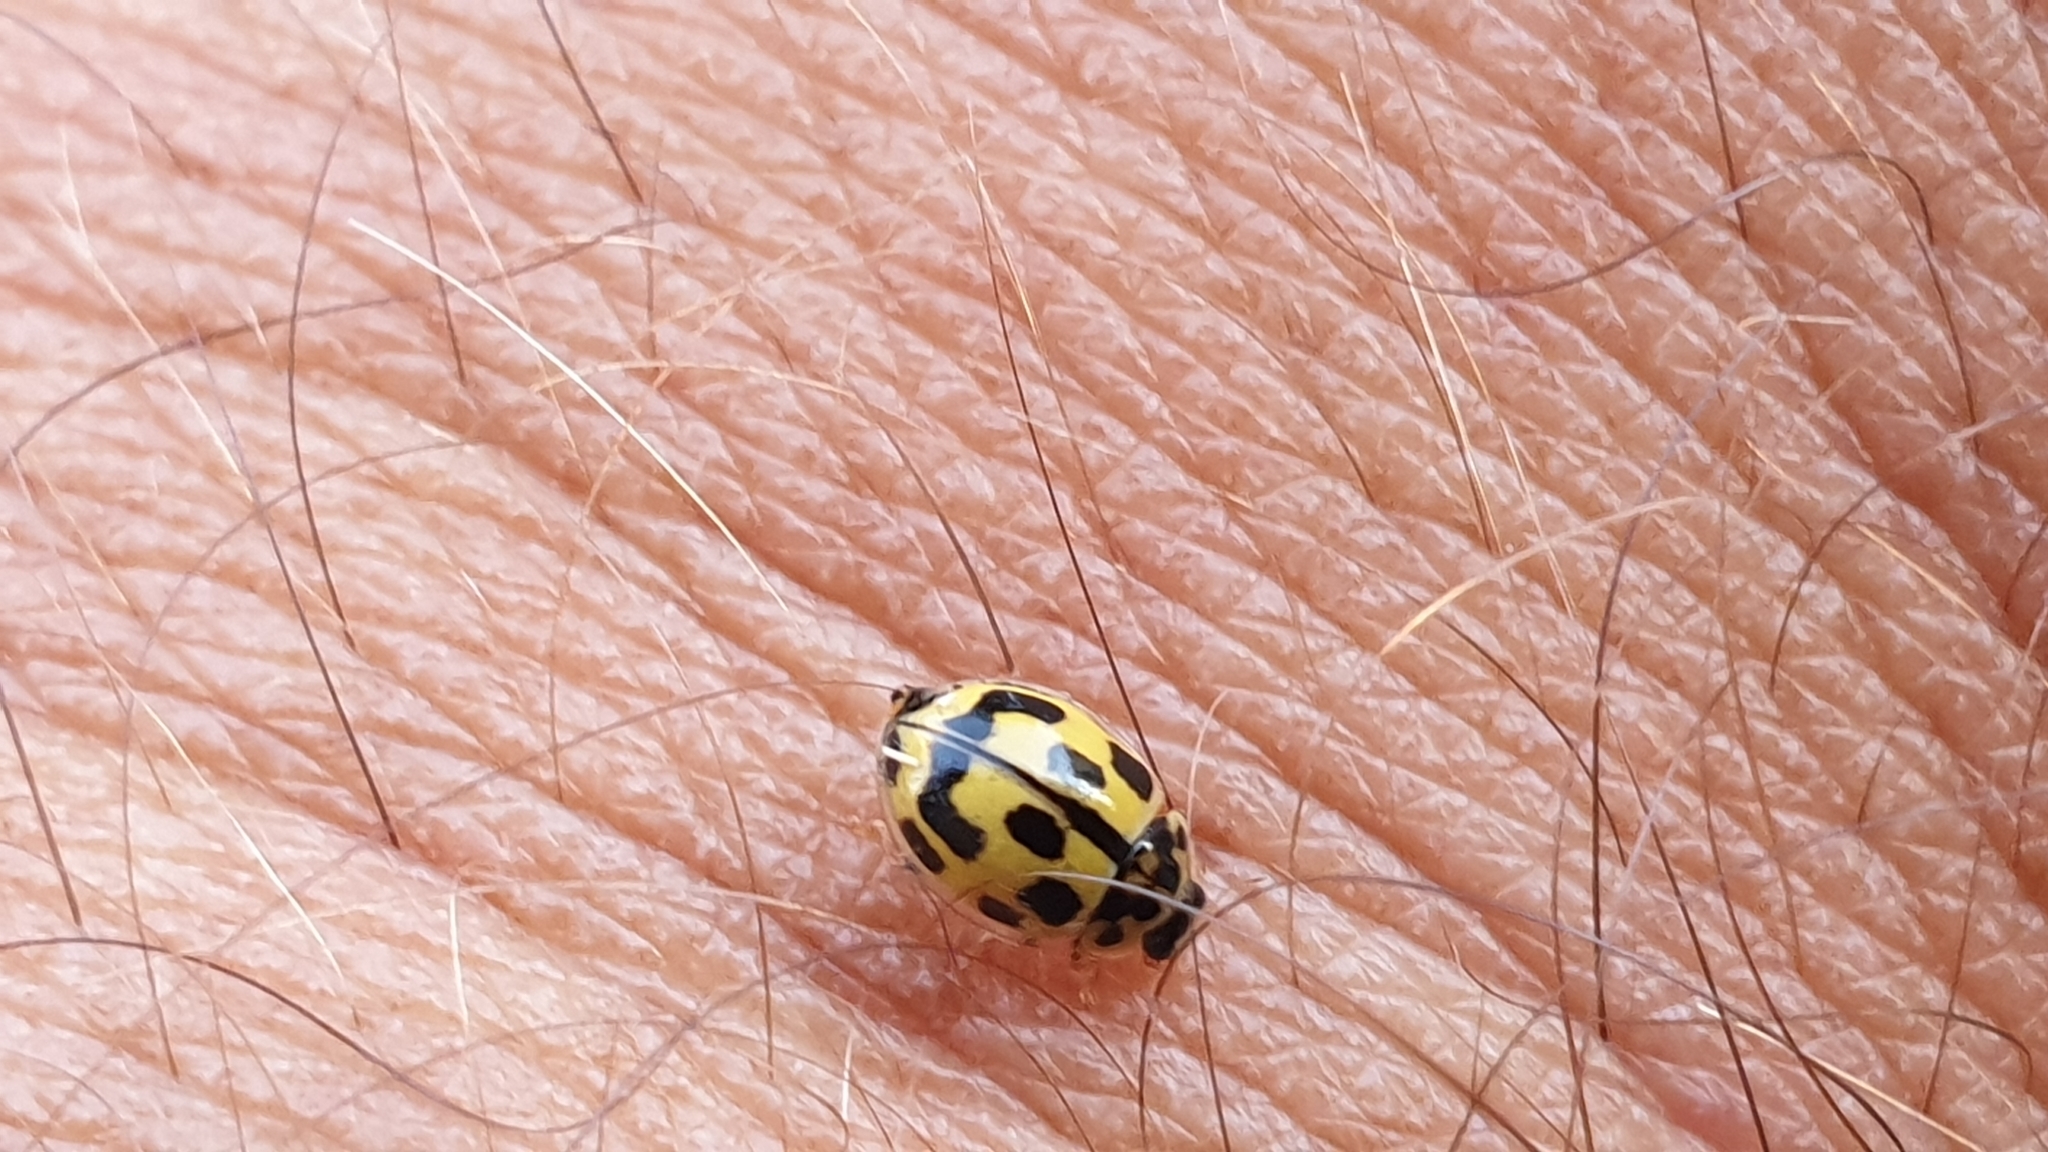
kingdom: Animalia
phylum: Arthropoda
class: Insecta
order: Coleoptera
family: Coccinellidae
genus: Propylaea
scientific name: Propylaea quatuordecimpunctata
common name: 14-spotted ladybird beetle
